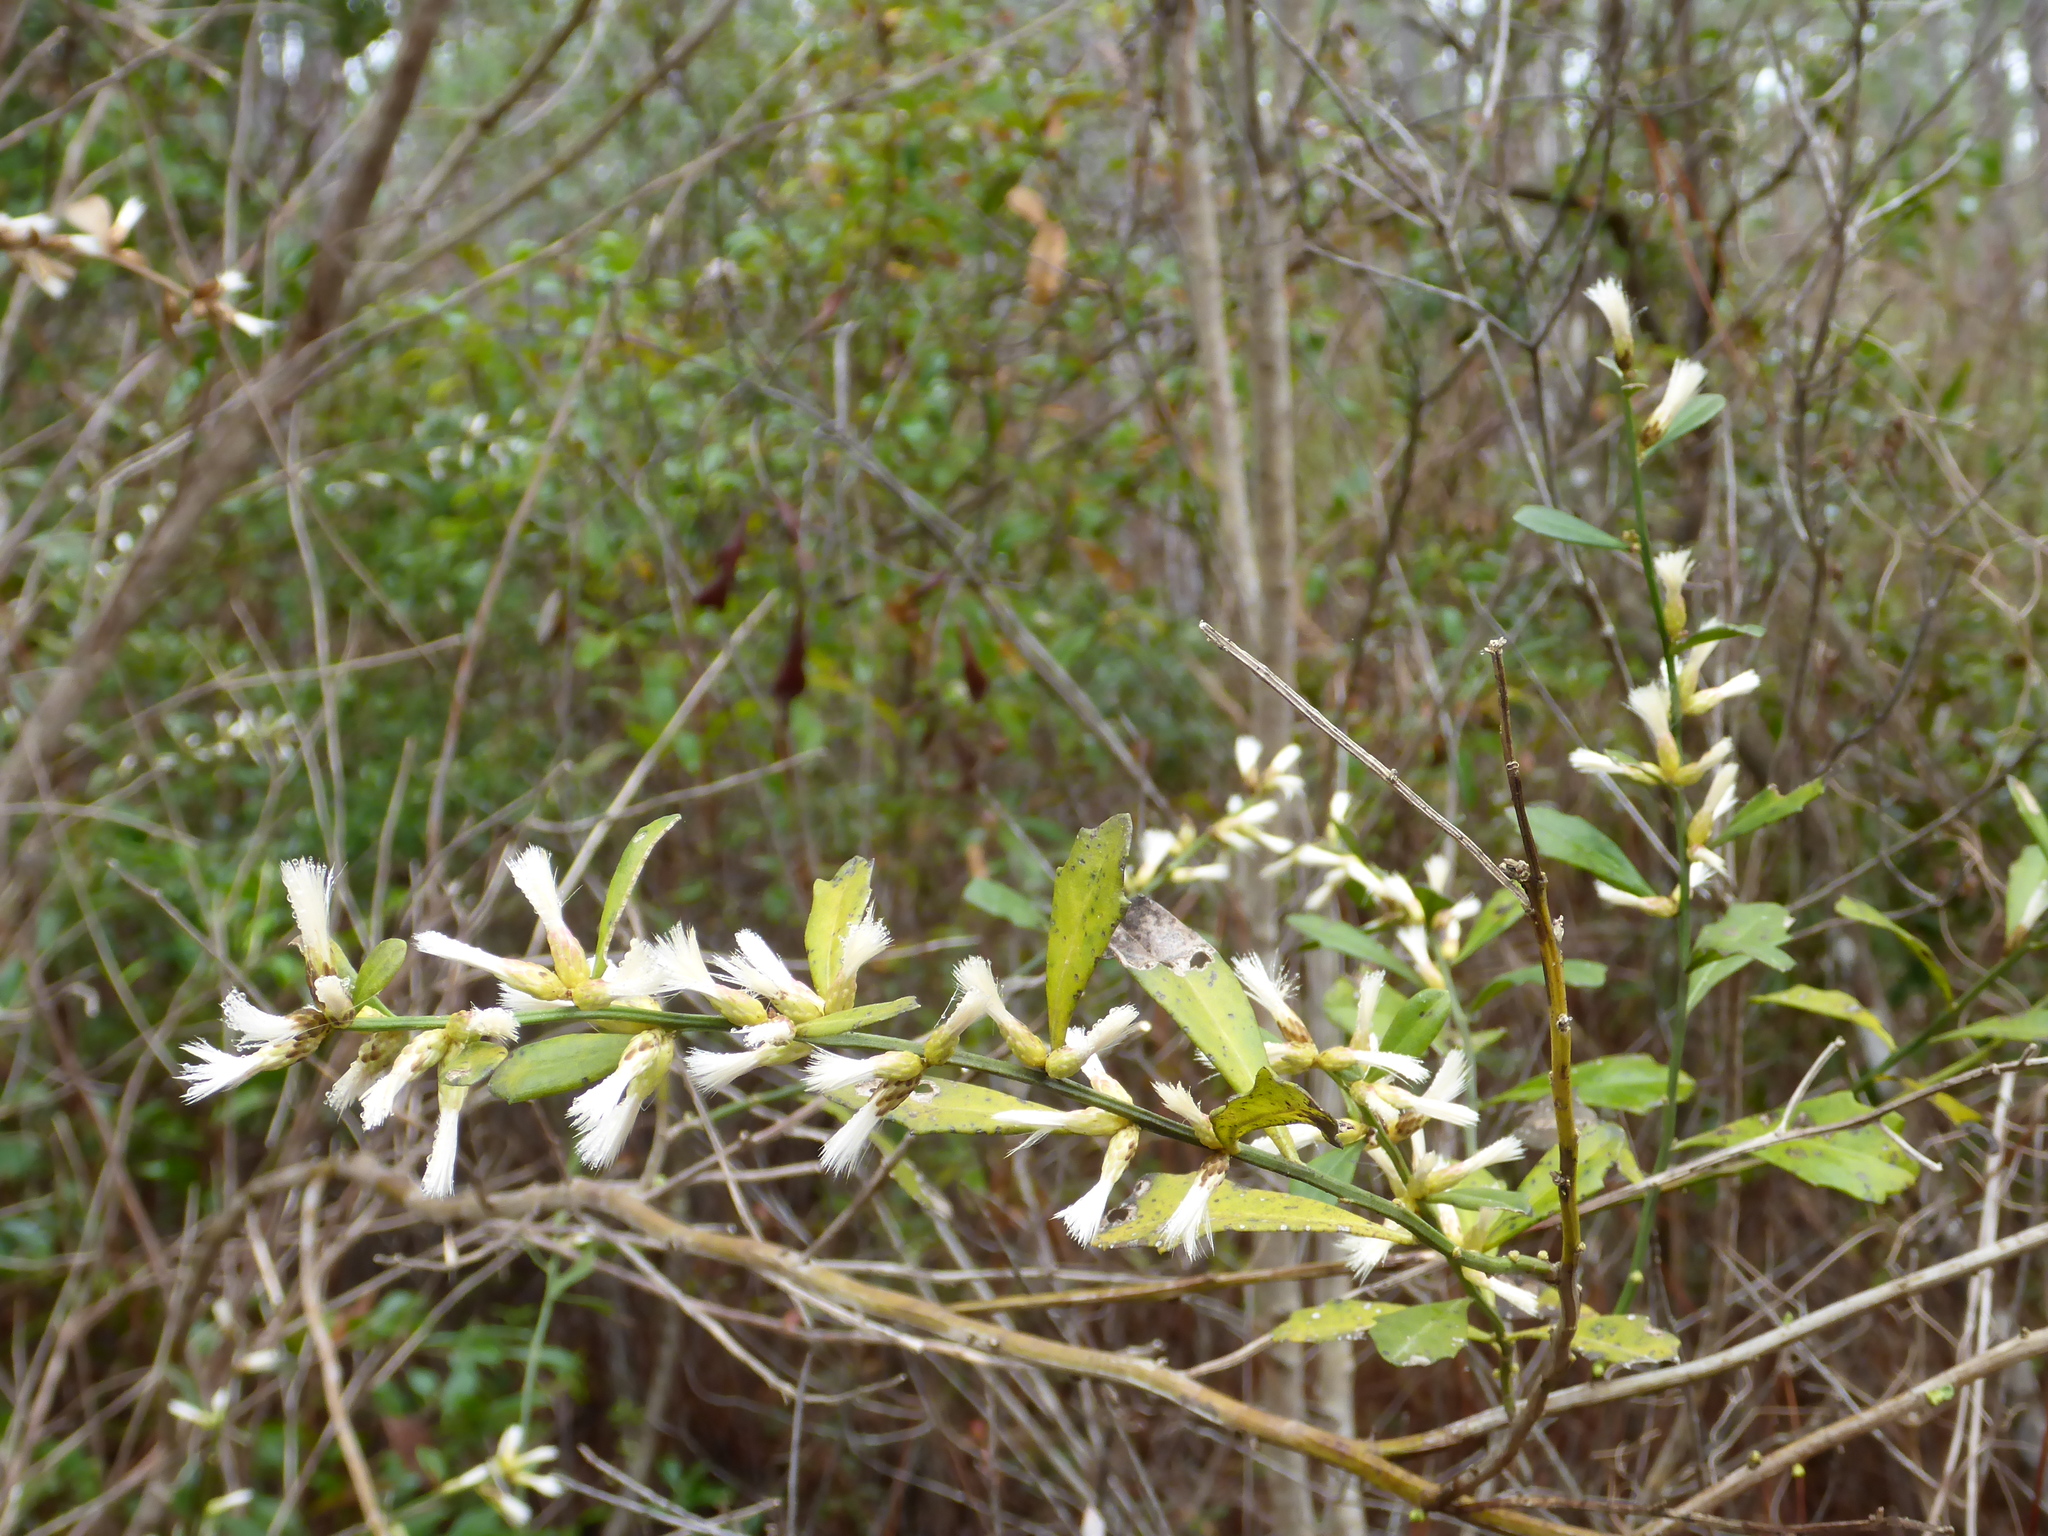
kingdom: Plantae
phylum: Tracheophyta
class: Magnoliopsida
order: Asterales
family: Asteraceae
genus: Baccharis
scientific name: Baccharis glomeruliflora
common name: Silverling groundsel bush
